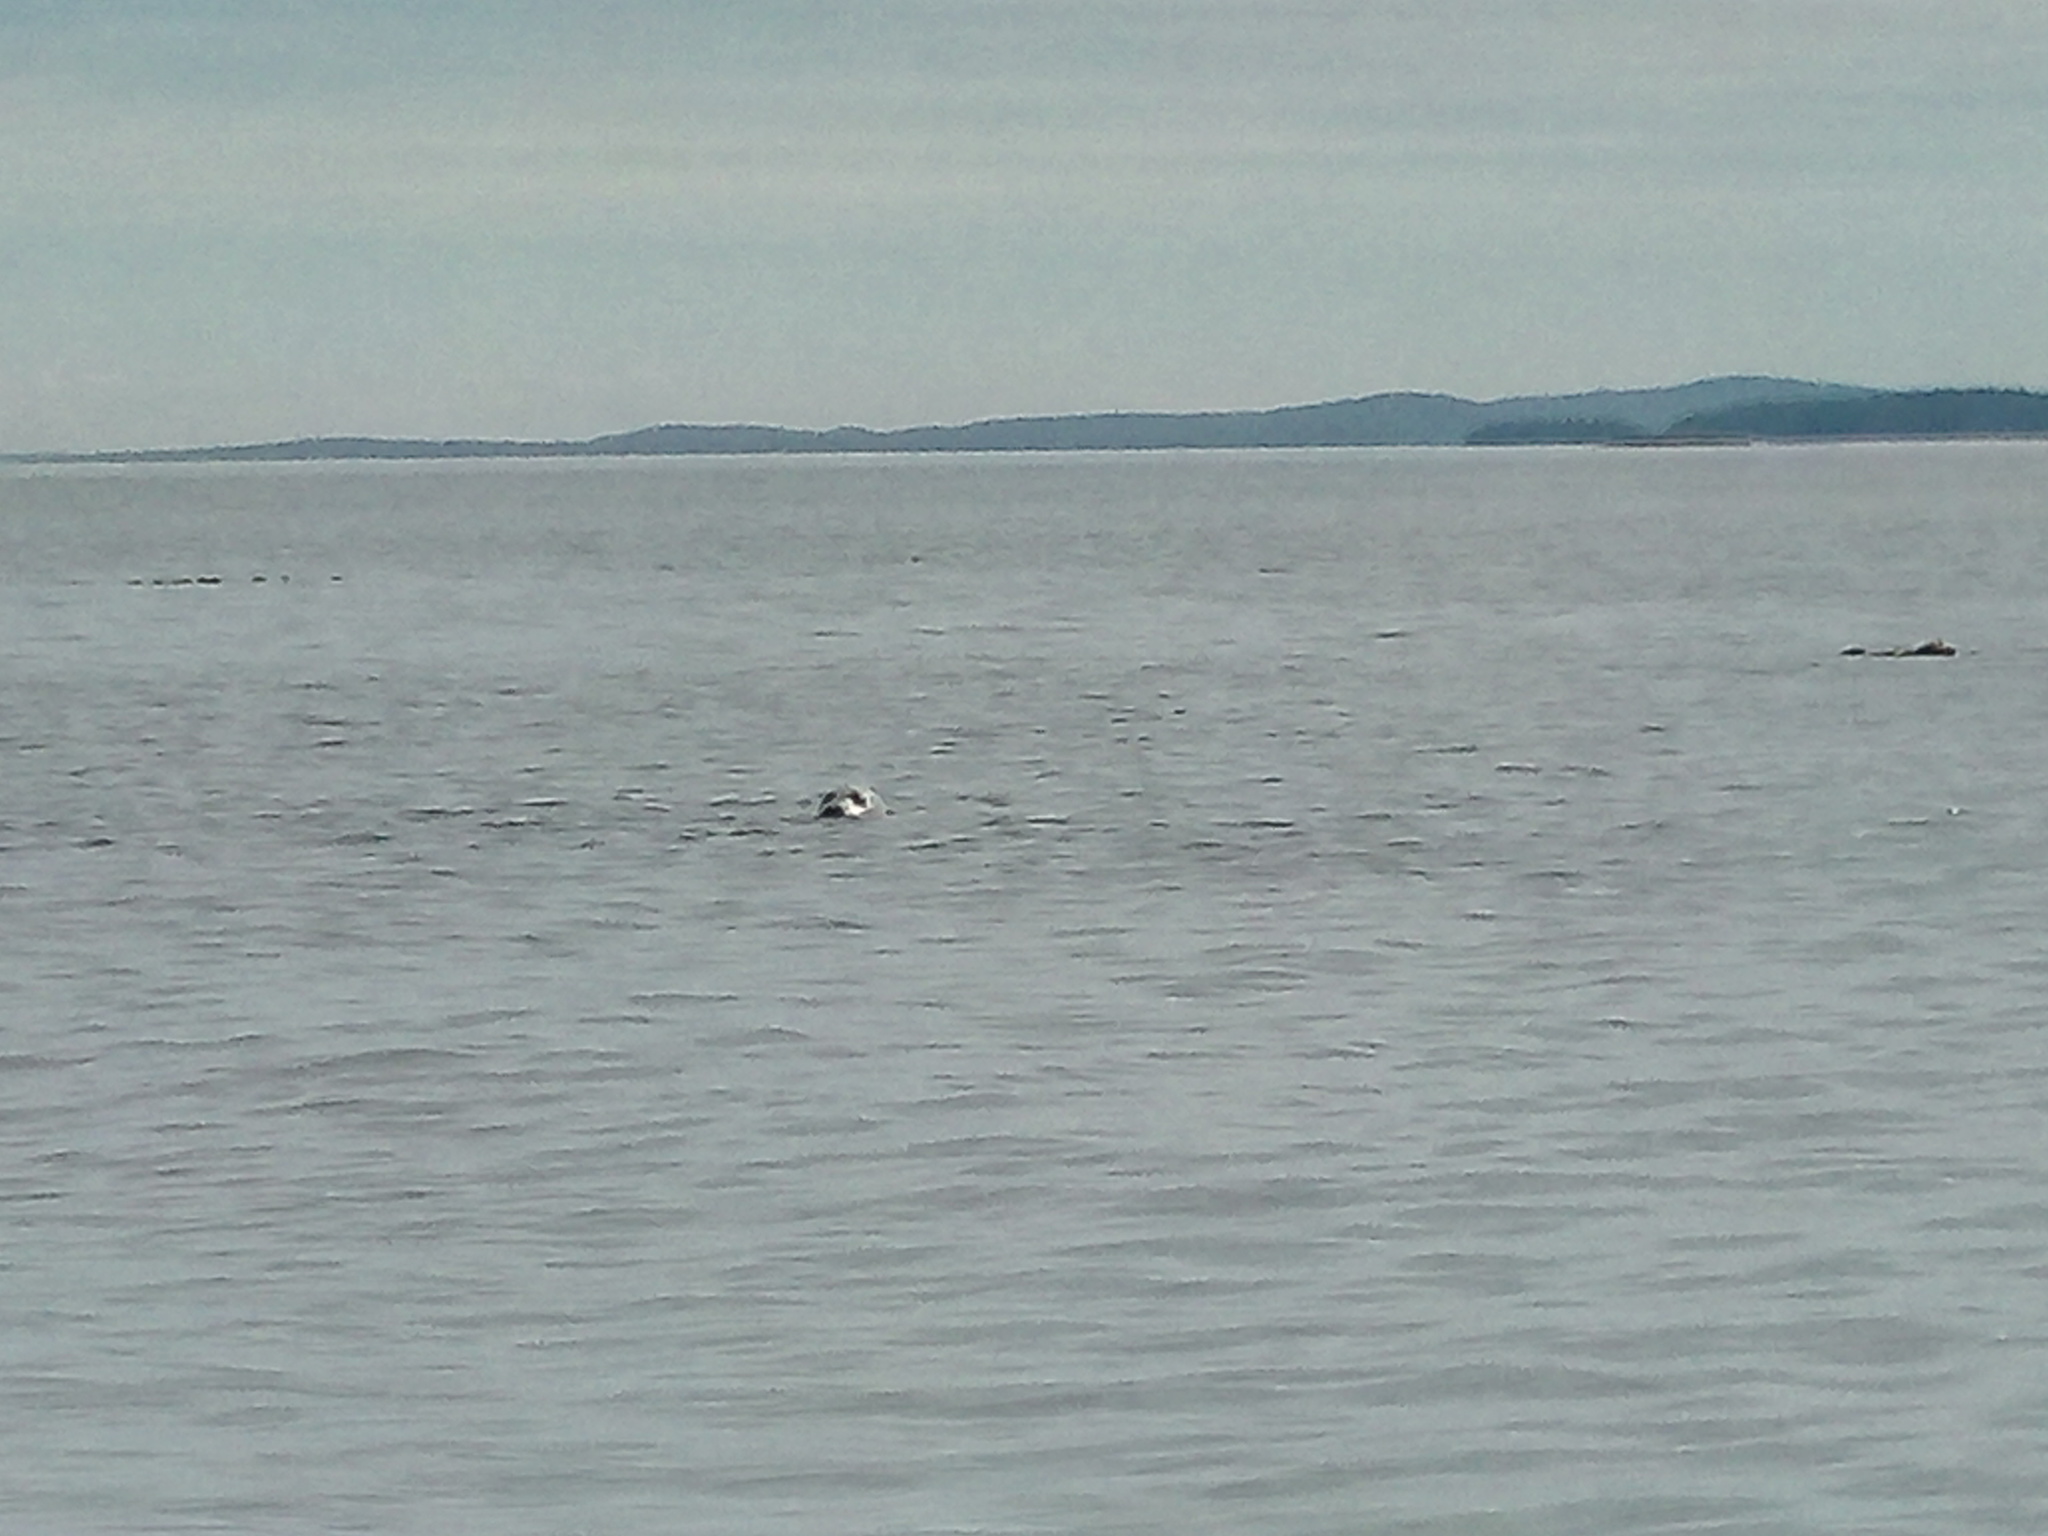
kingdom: Animalia
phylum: Chordata
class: Mammalia
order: Carnivora
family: Phocidae
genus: Phoca
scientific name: Phoca vitulina
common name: Harbor seal
